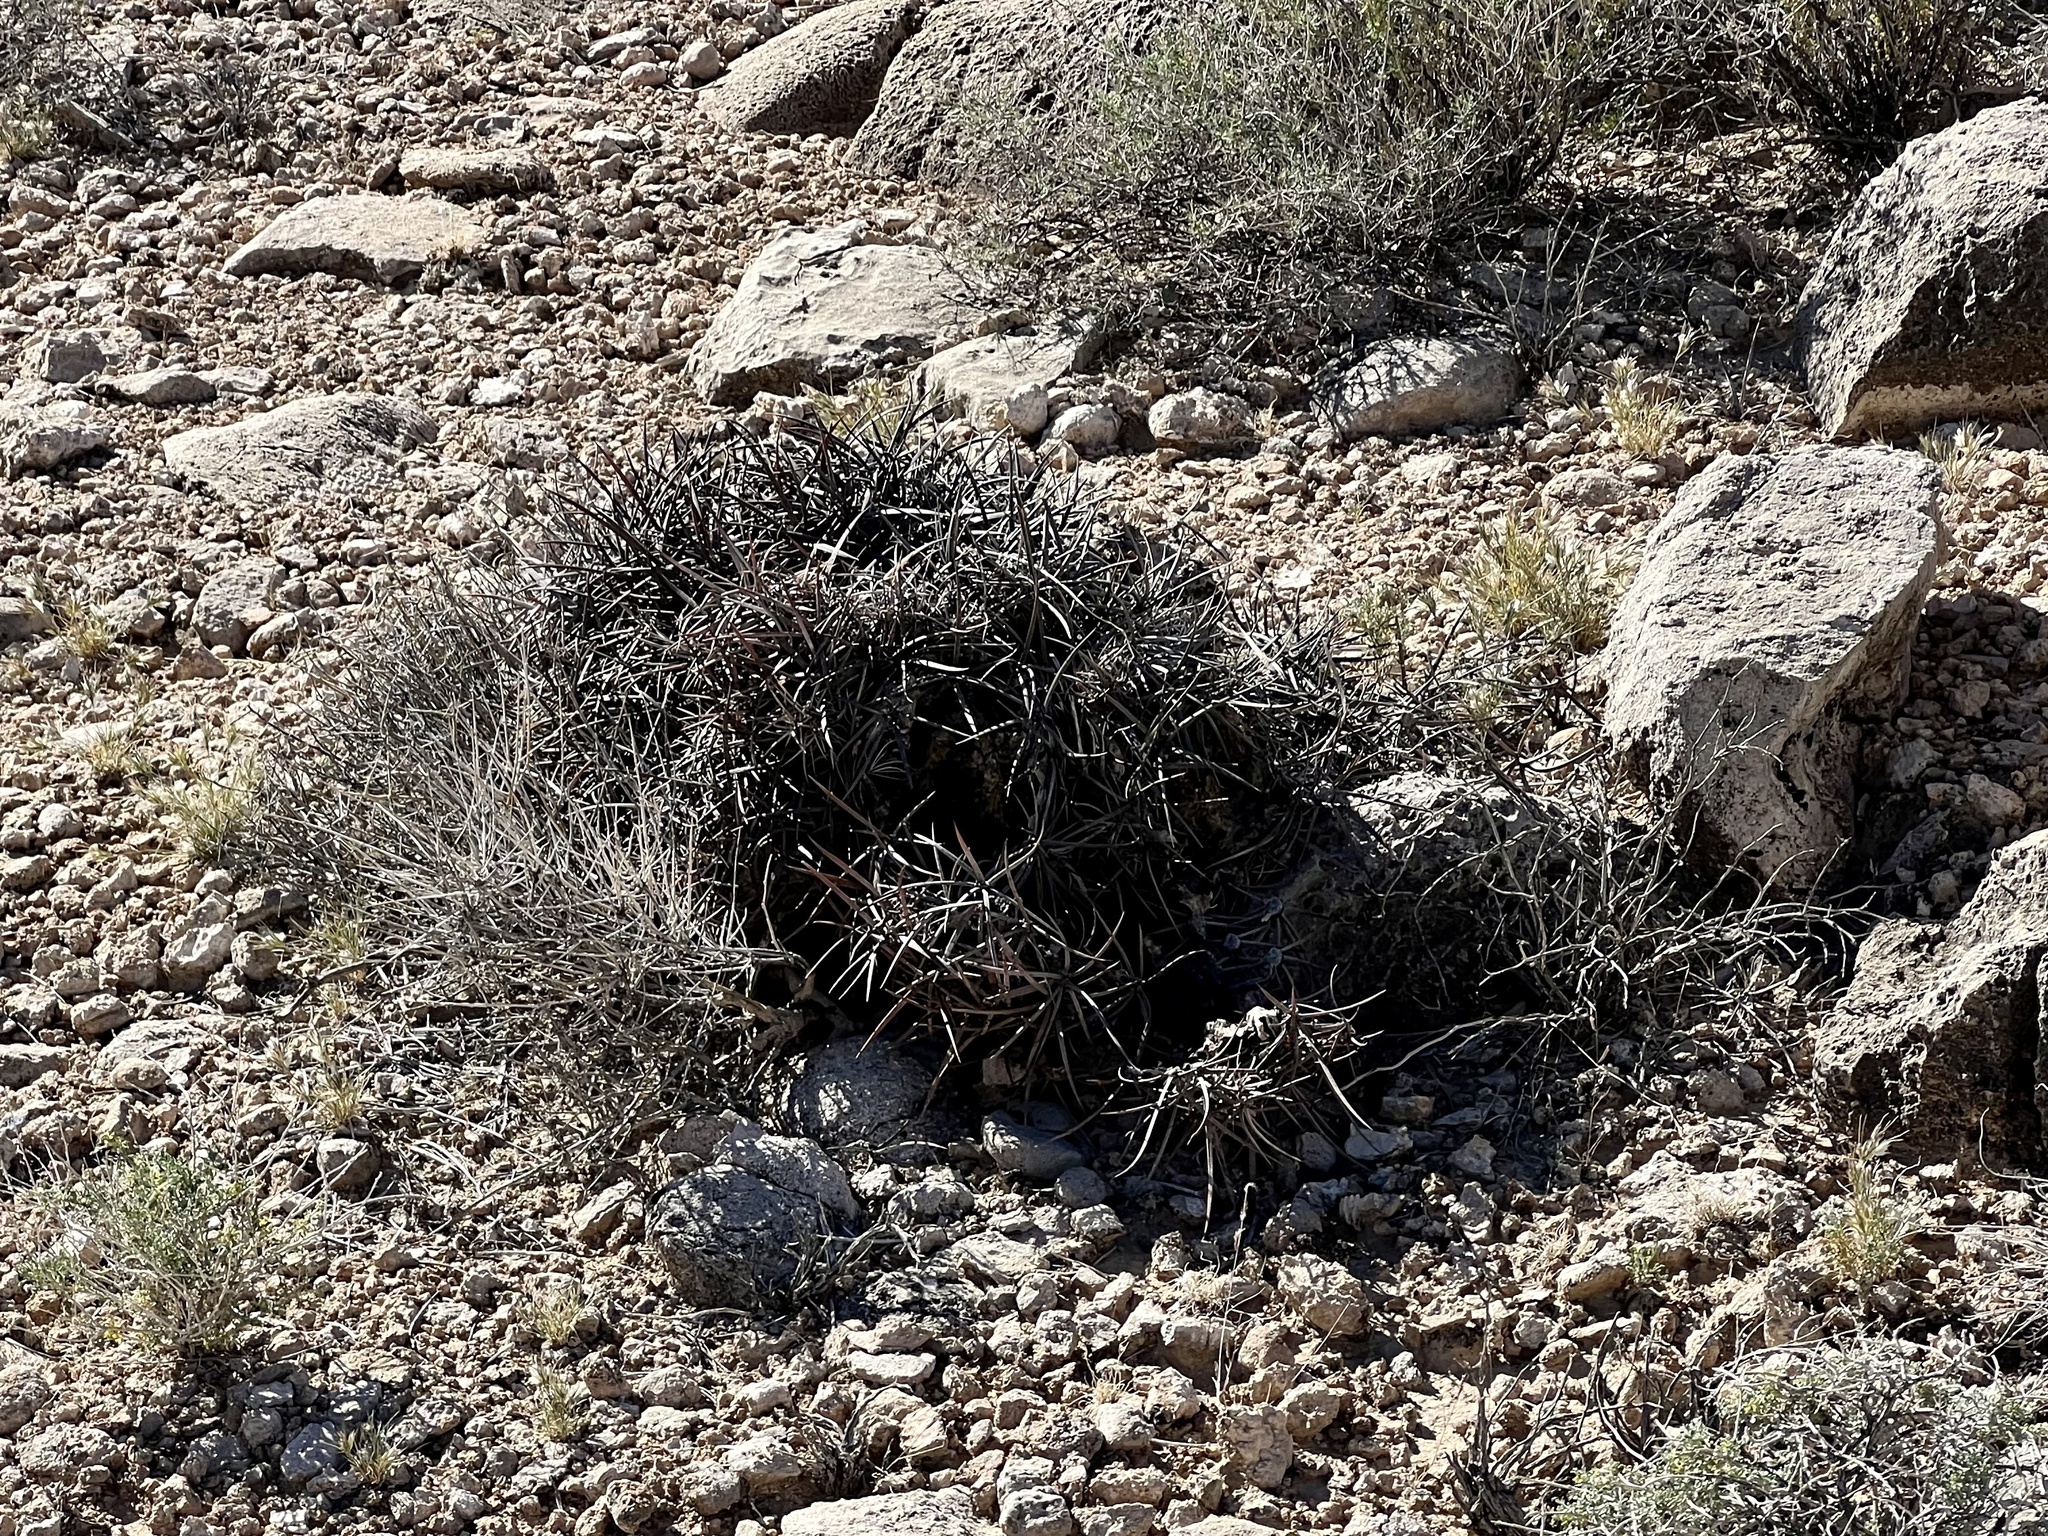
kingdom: Plantae
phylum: Tracheophyta
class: Magnoliopsida
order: Caryophyllales
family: Cactaceae
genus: Echinocactus
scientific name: Echinocactus polycephalus
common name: Cottontop cactus
